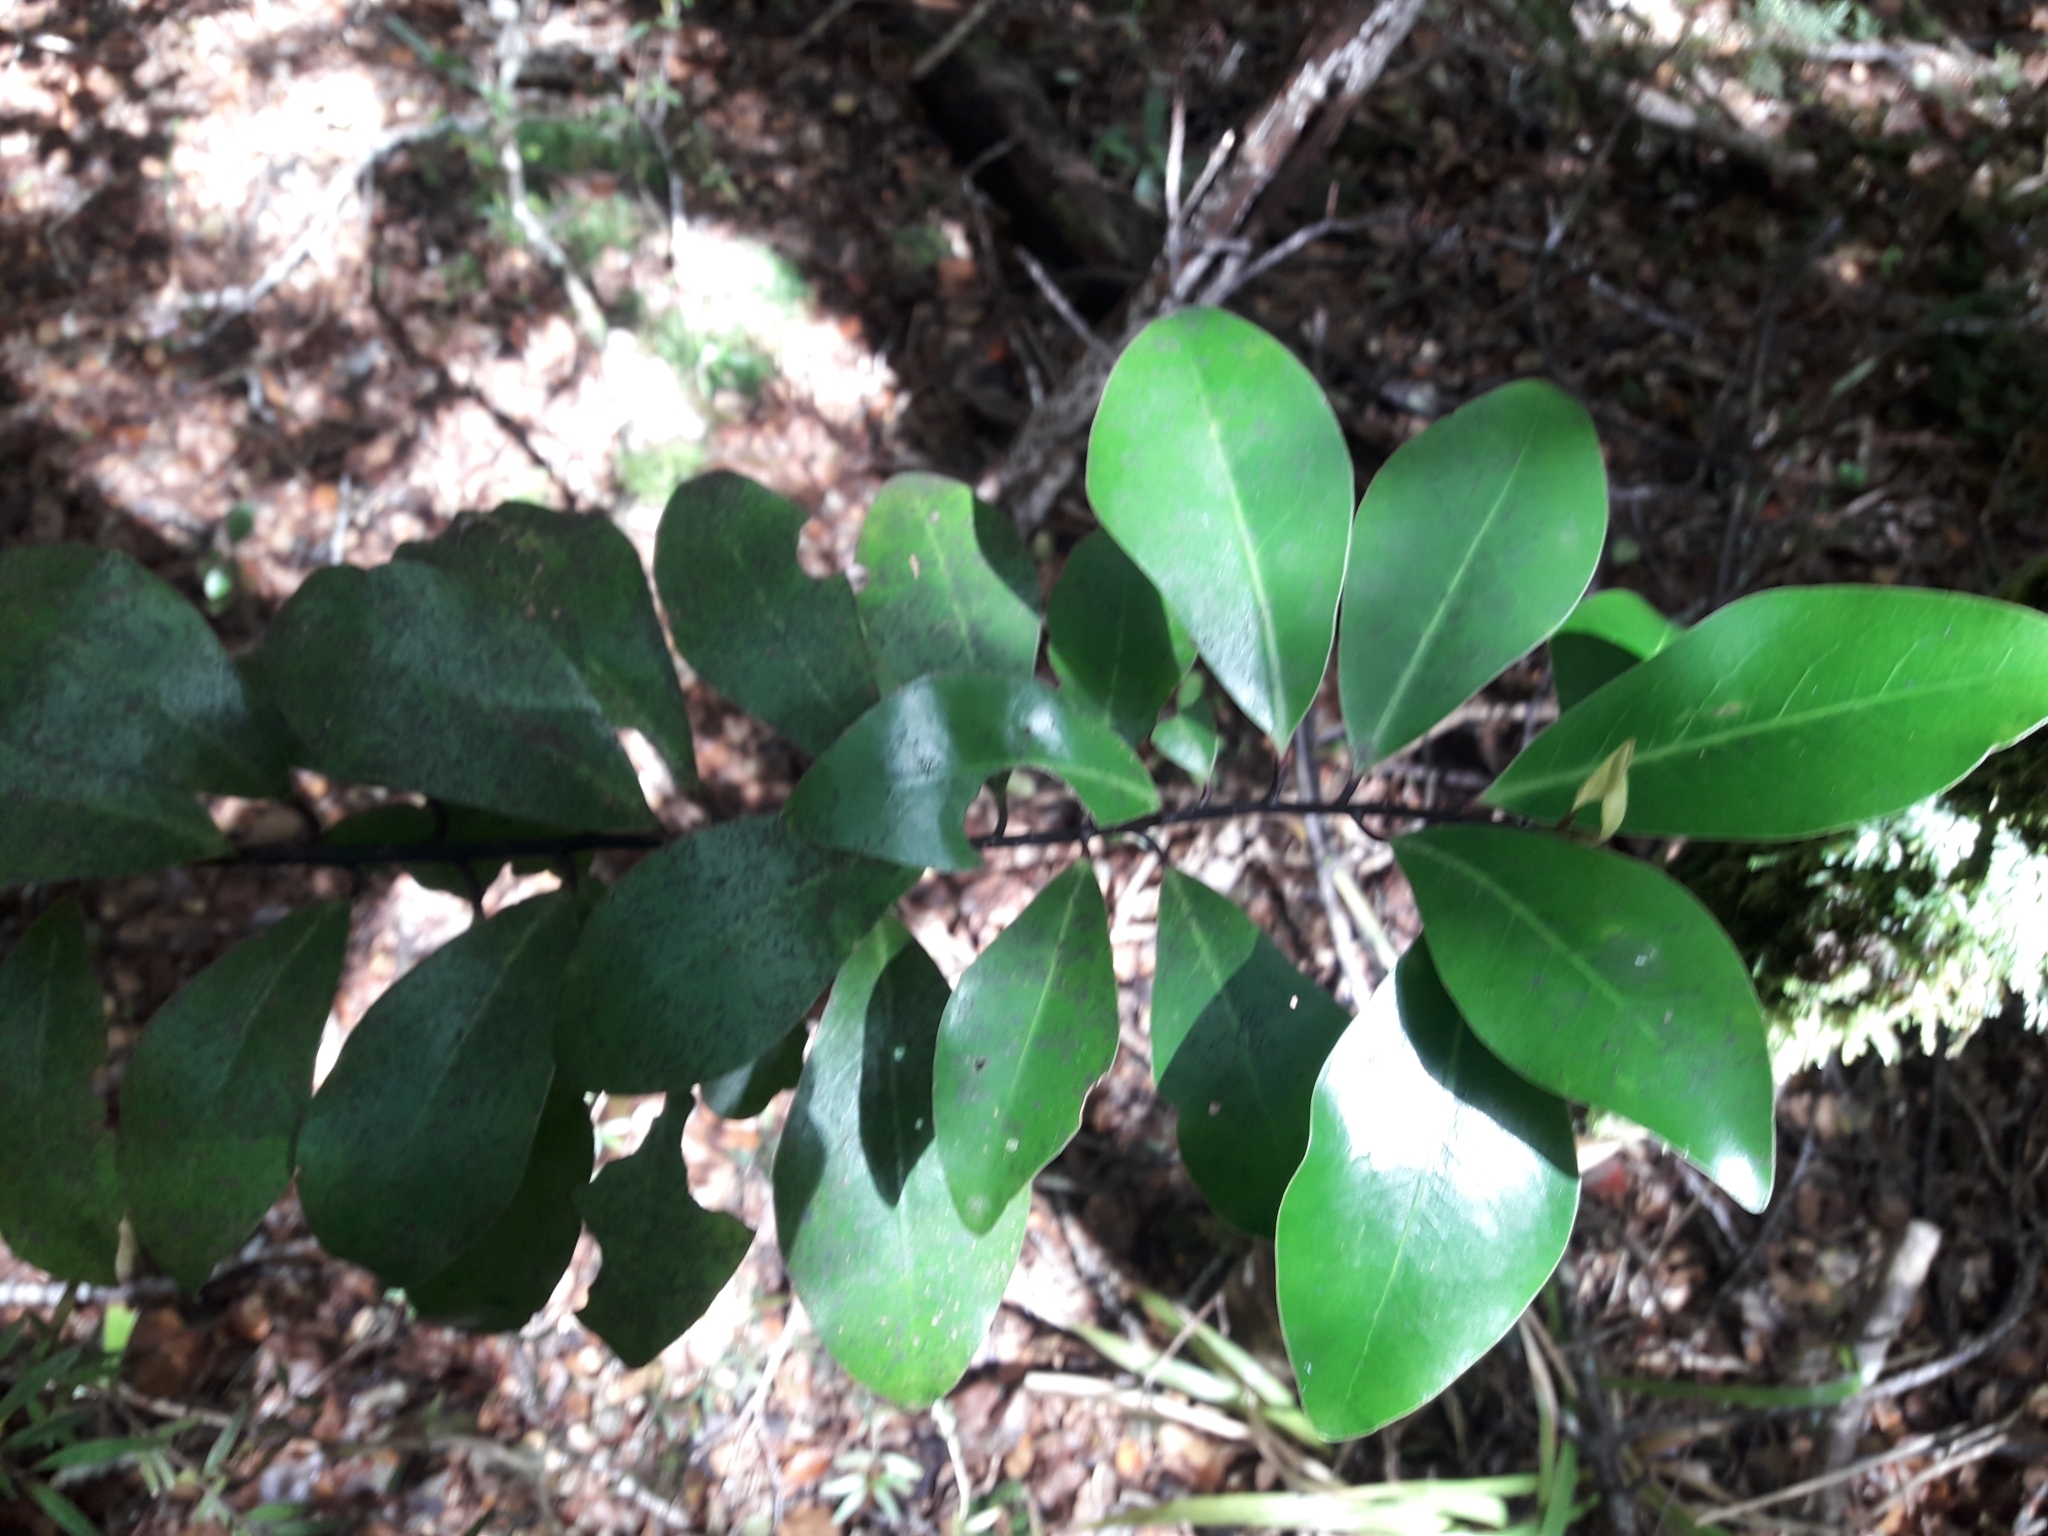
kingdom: Plantae
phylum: Tracheophyta
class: Magnoliopsida
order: Canellales
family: Winteraceae
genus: Pseudowintera
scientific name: Pseudowintera axillaris
